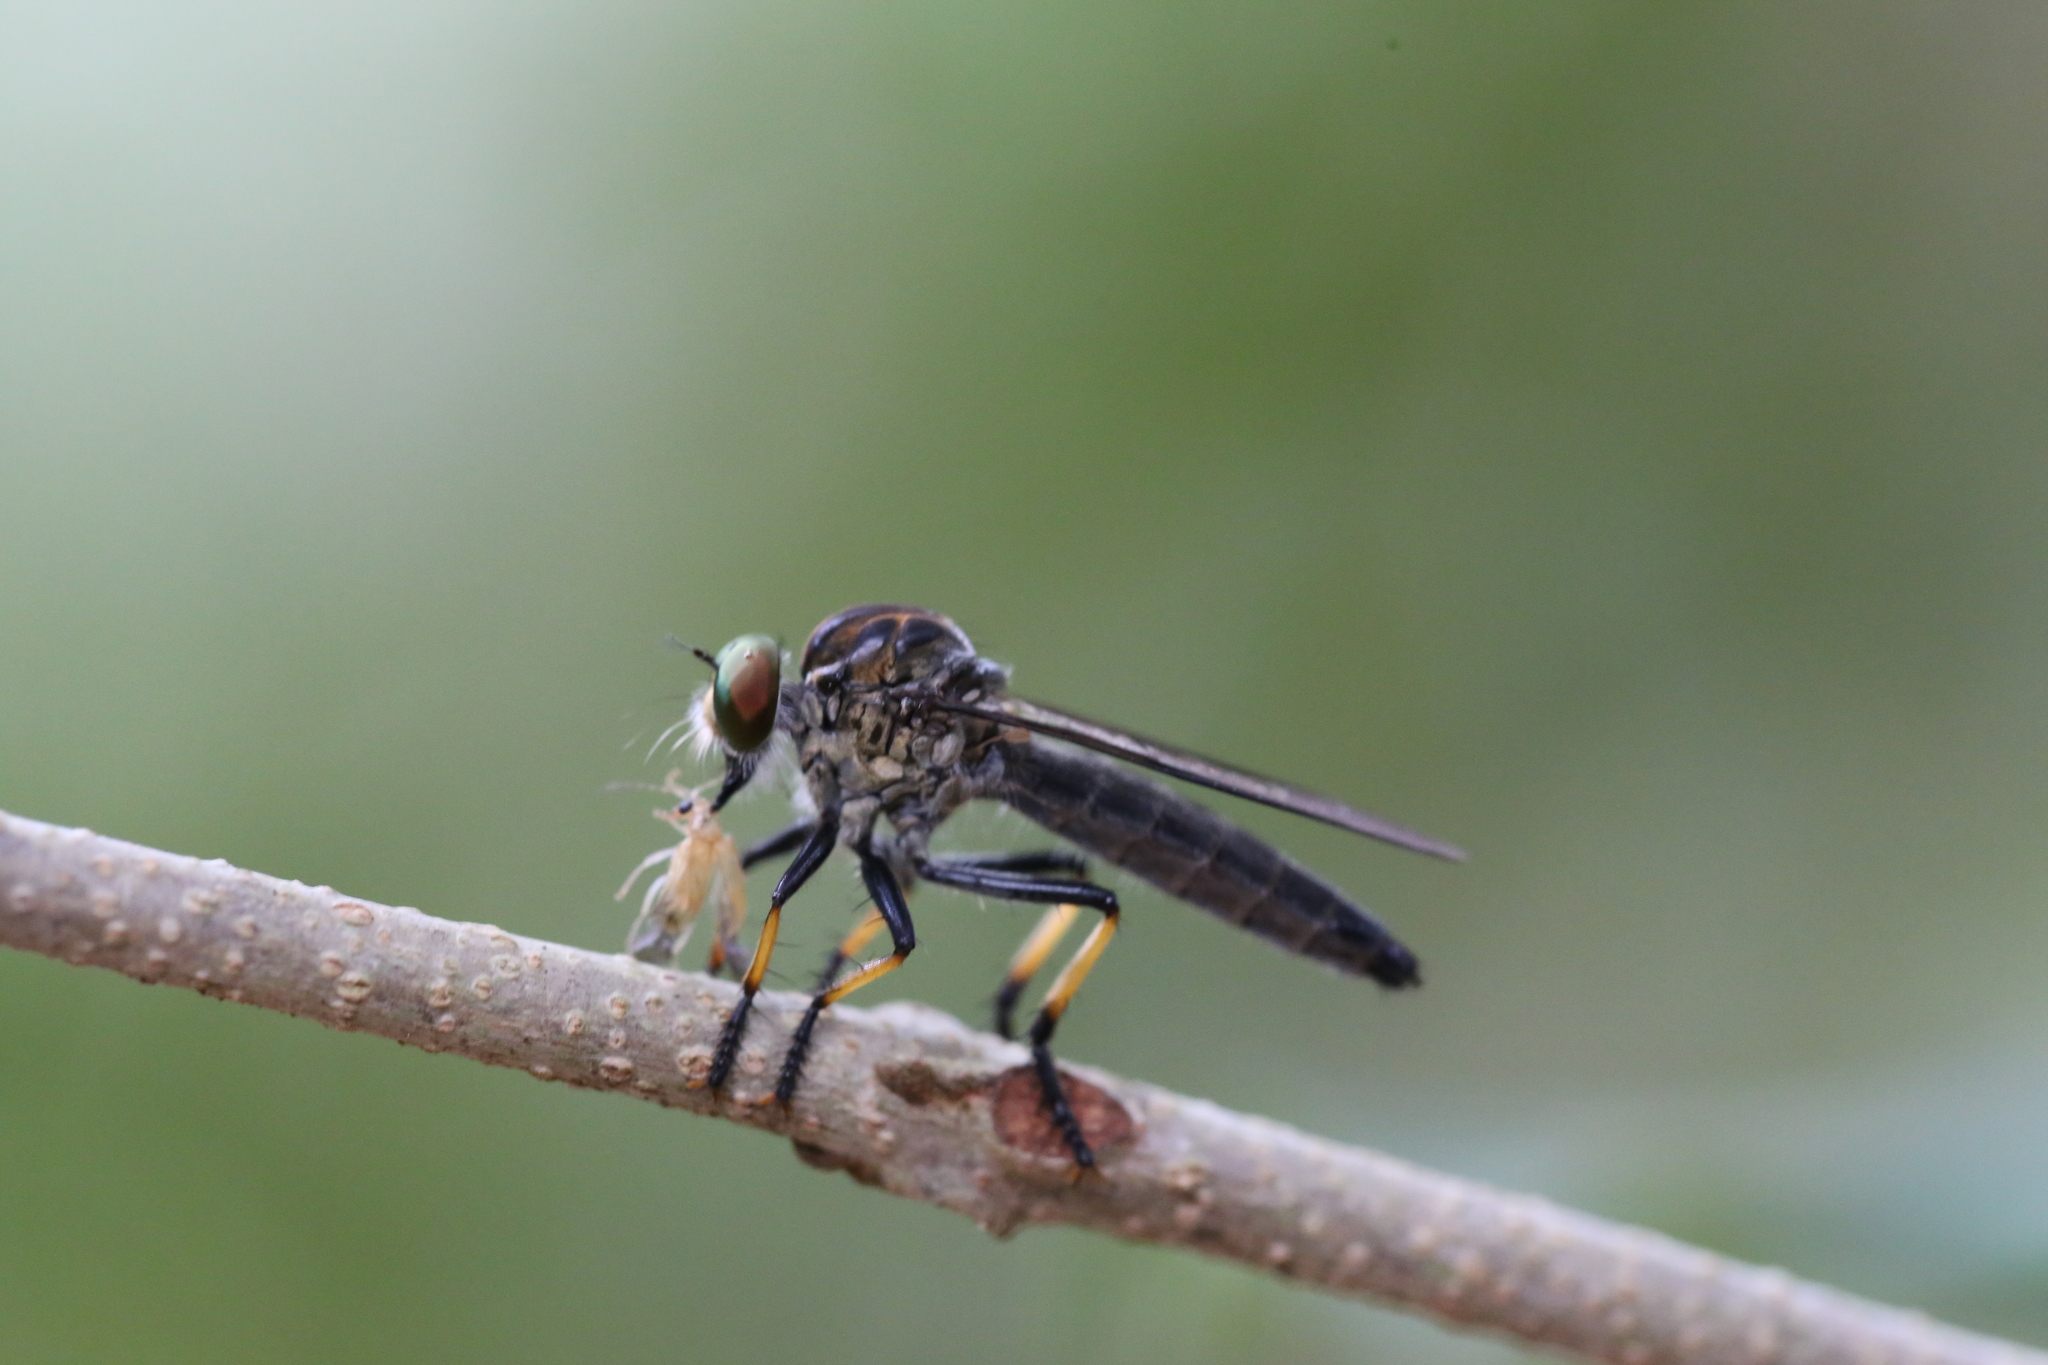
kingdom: Animalia
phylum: Arthropoda
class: Insecta
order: Diptera
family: Asilidae
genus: Ommatius
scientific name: Ommatius coeraebus
